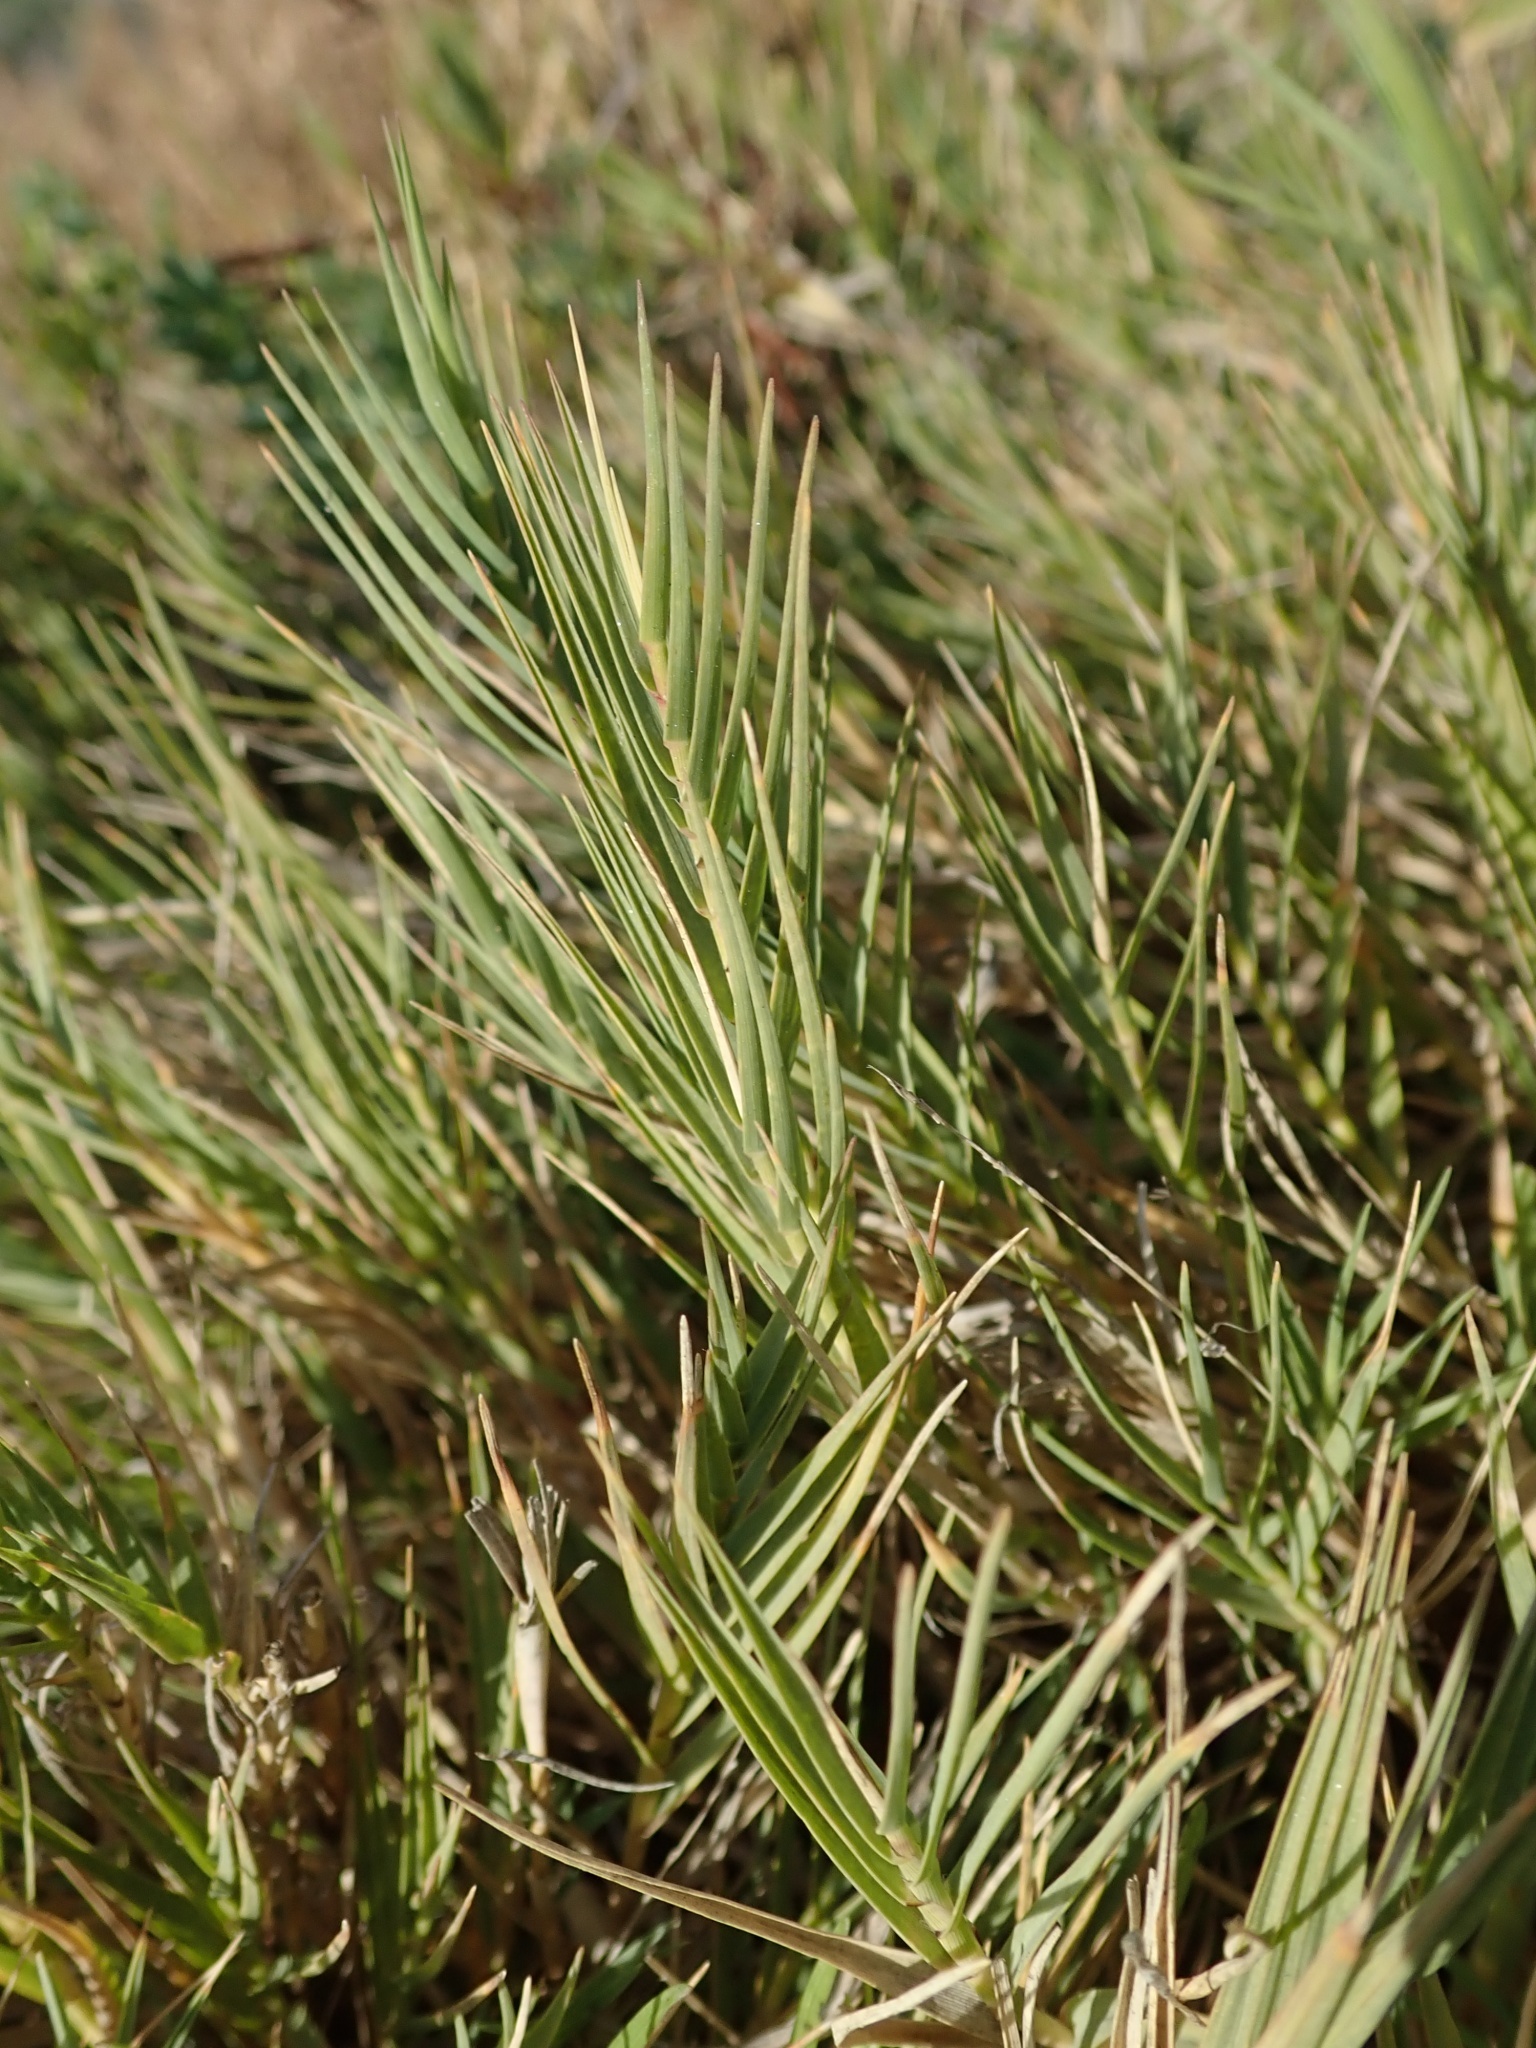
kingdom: Plantae
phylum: Tracheophyta
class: Liliopsida
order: Poales
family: Poaceae
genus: Distichlis
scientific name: Distichlis spicata
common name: Saltgrass
